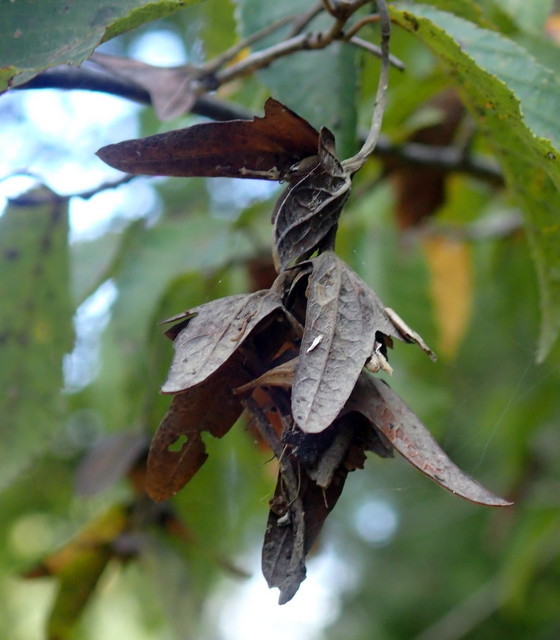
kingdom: Plantae
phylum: Tracheophyta
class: Magnoliopsida
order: Fagales
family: Betulaceae
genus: Carpinus
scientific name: Carpinus caroliniana
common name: American hornbeam
